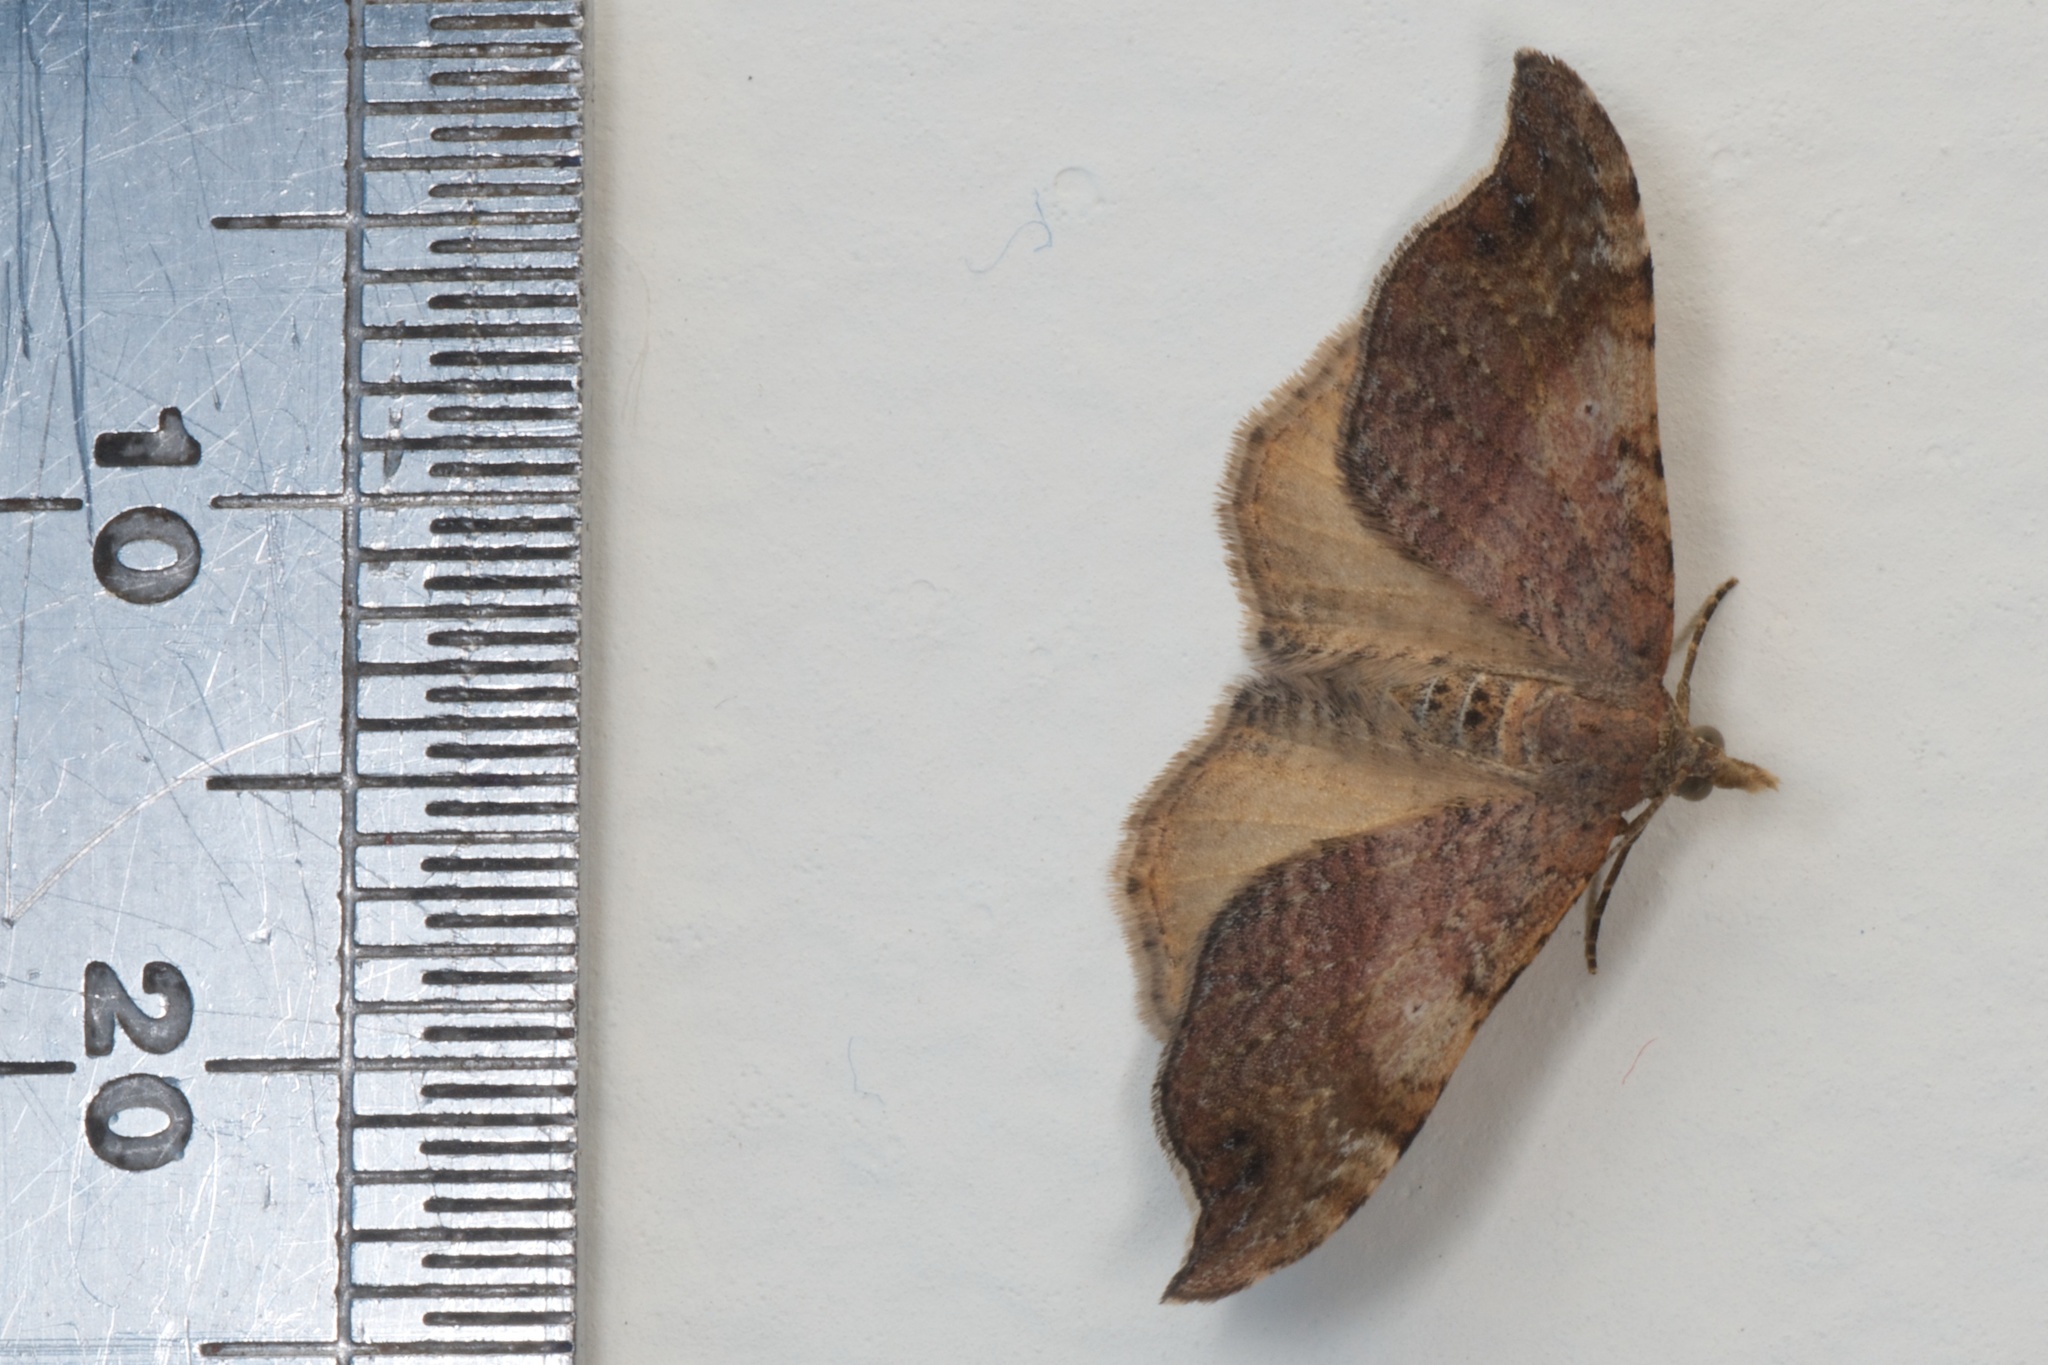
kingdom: Animalia
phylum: Arthropoda
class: Insecta
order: Lepidoptera
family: Geometridae
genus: Homodotis
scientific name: Homodotis megaspilata
